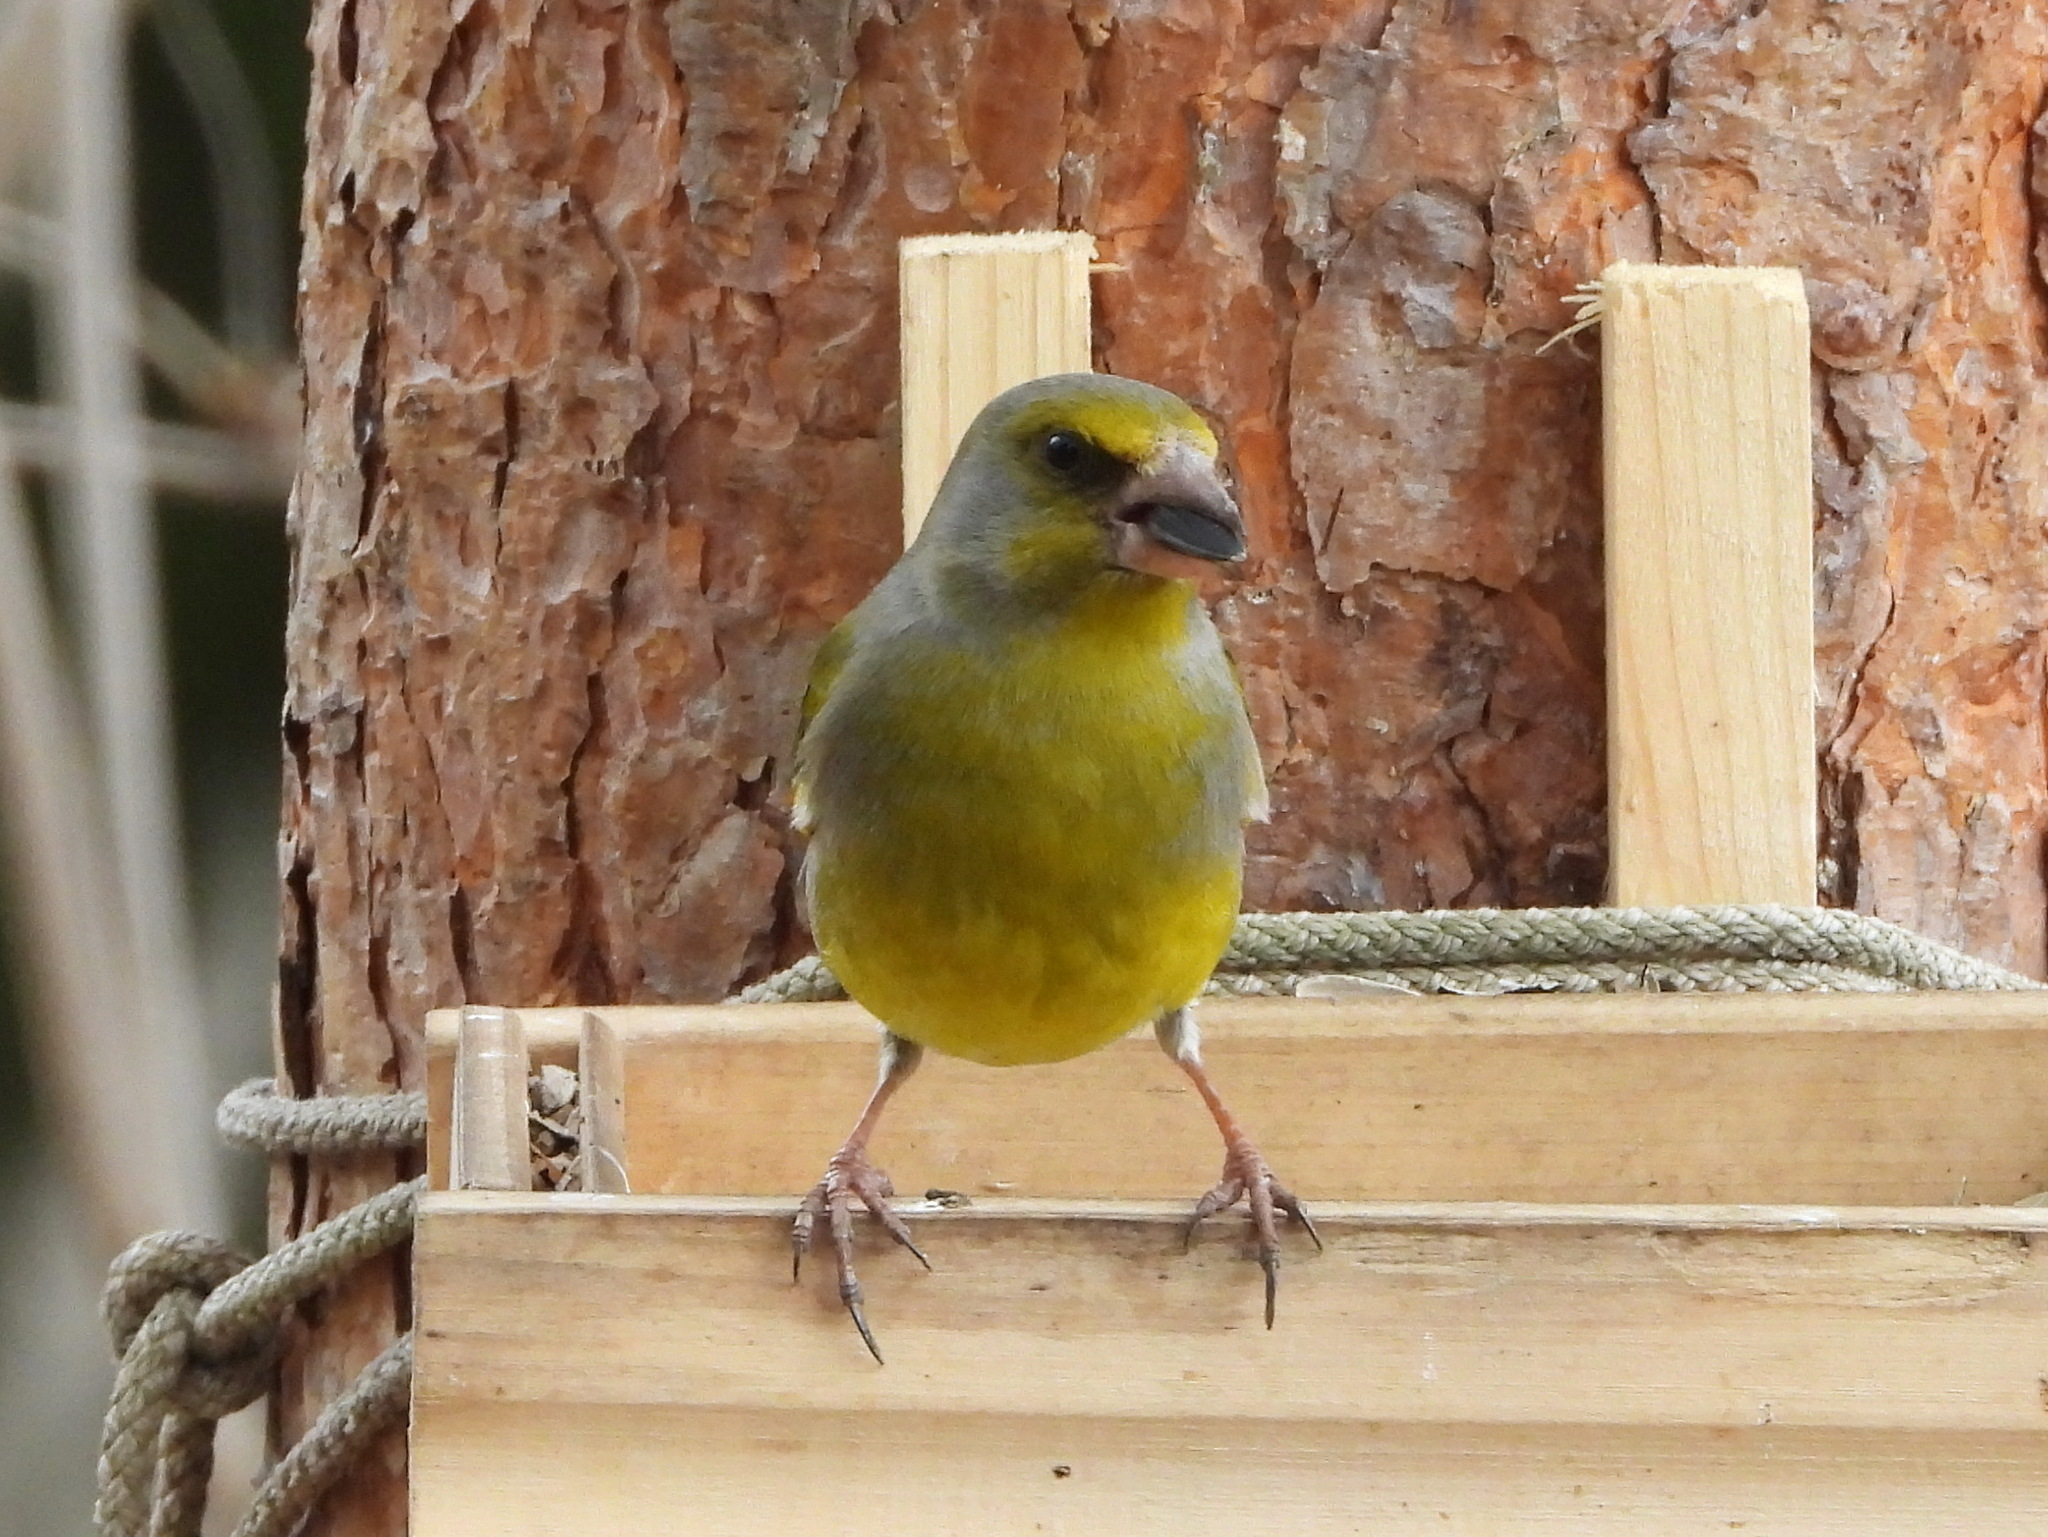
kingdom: Plantae
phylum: Tracheophyta
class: Liliopsida
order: Poales
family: Poaceae
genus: Chloris
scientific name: Chloris chloris
